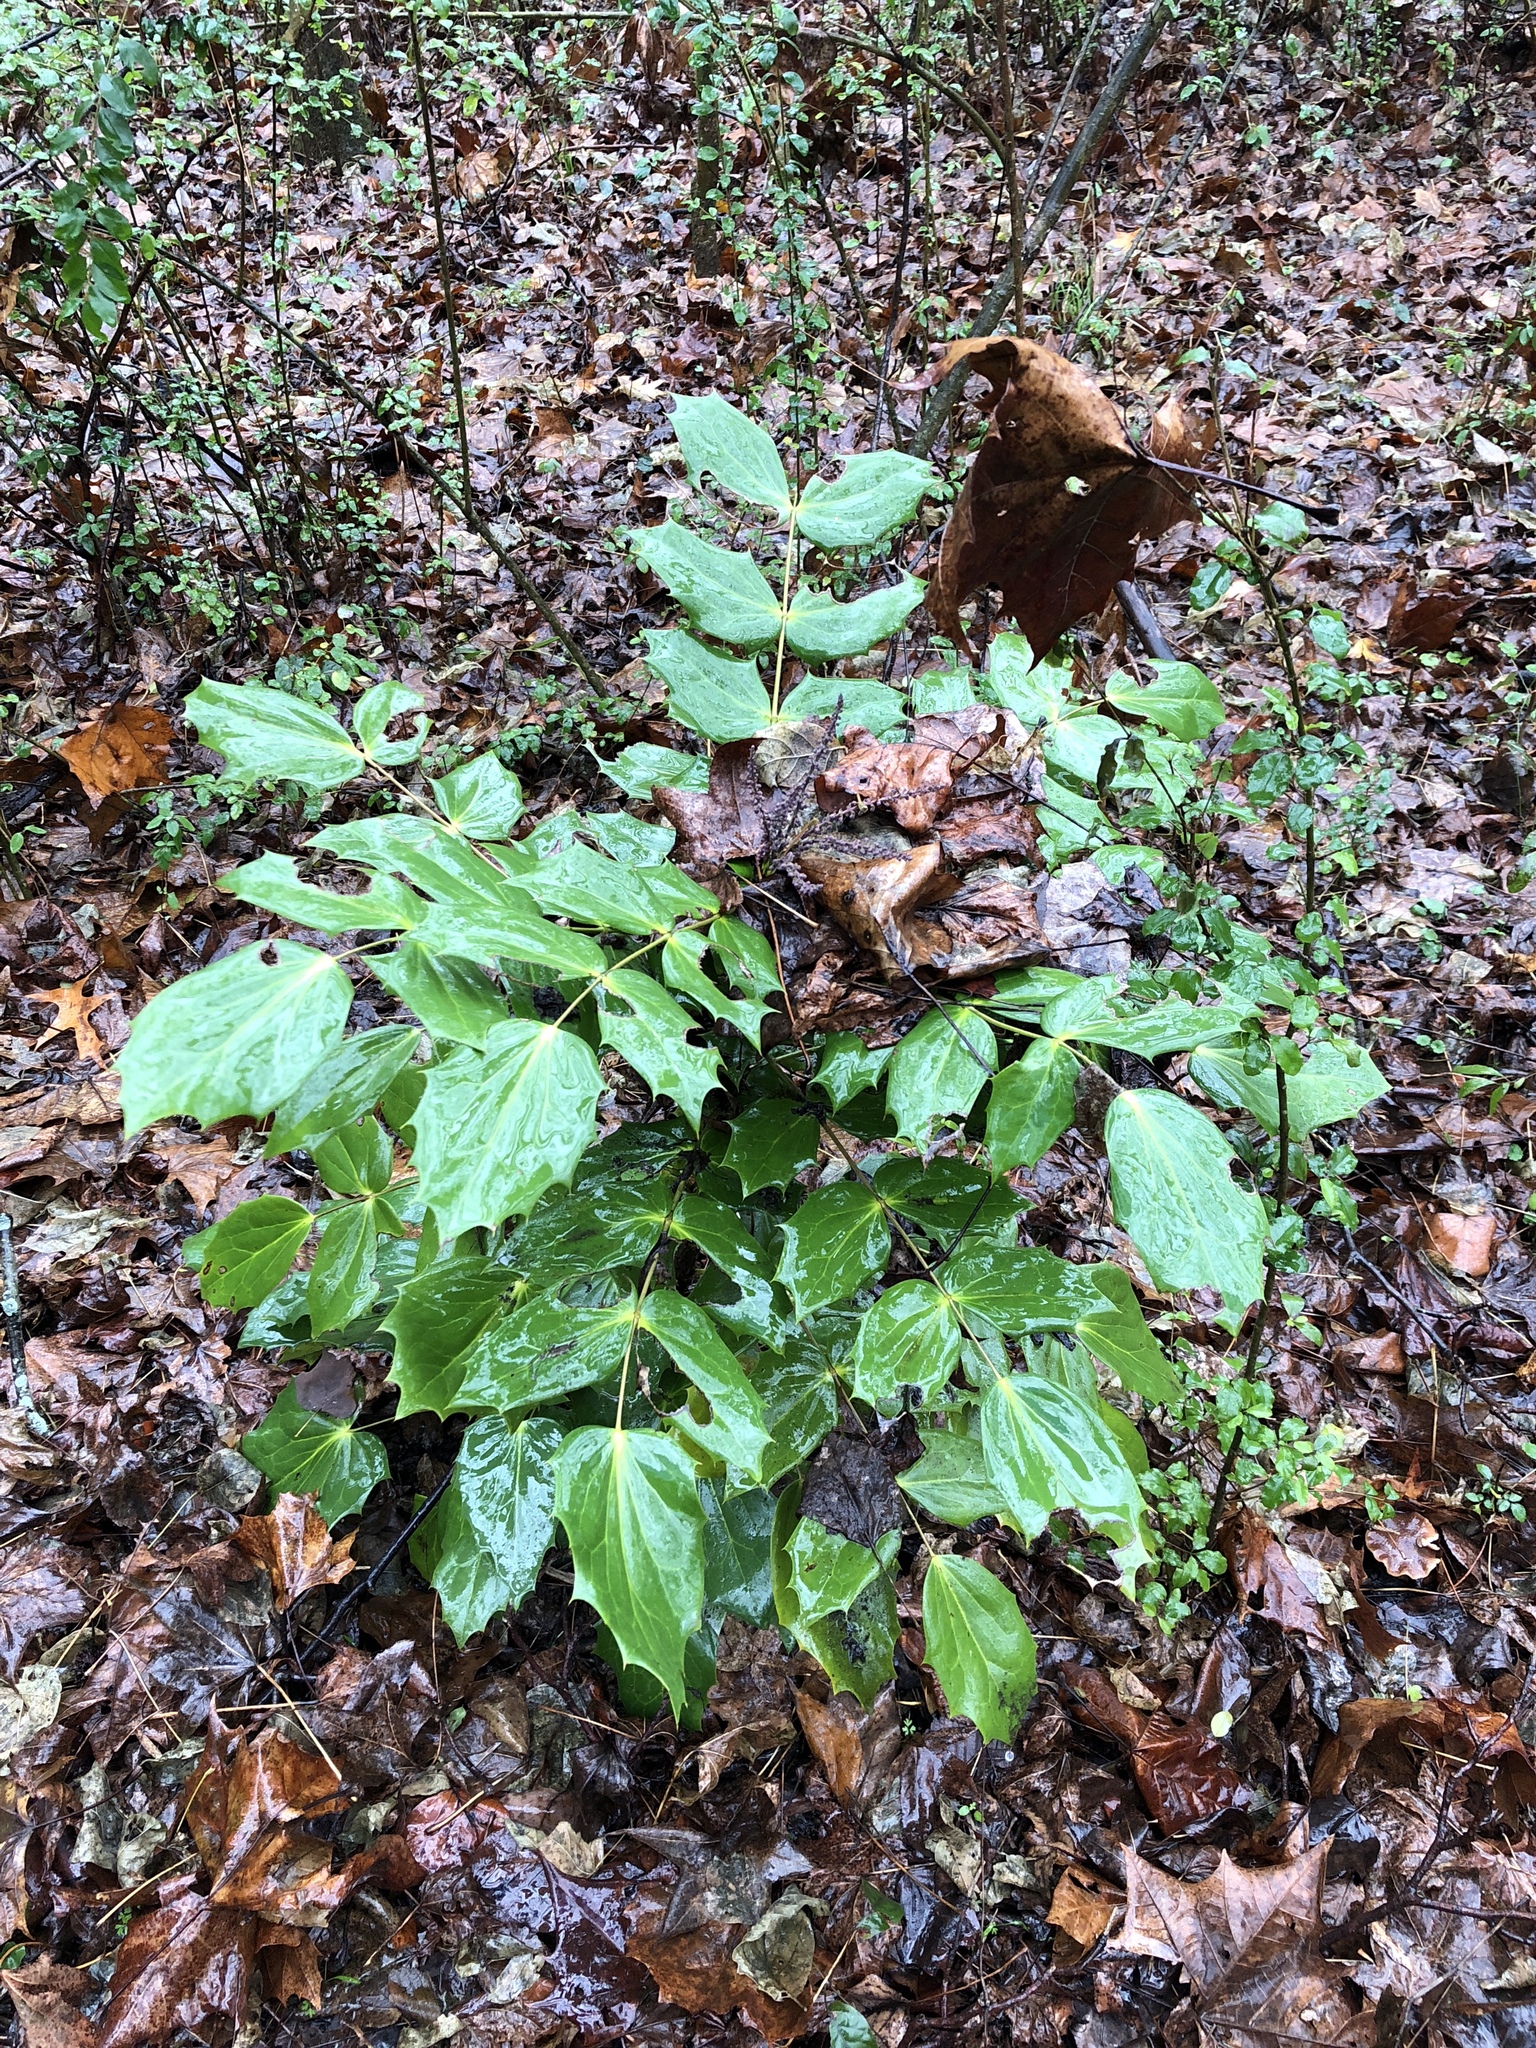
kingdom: Plantae
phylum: Tracheophyta
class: Magnoliopsida
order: Ranunculales
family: Berberidaceae
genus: Mahonia
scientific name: Mahonia bealei
